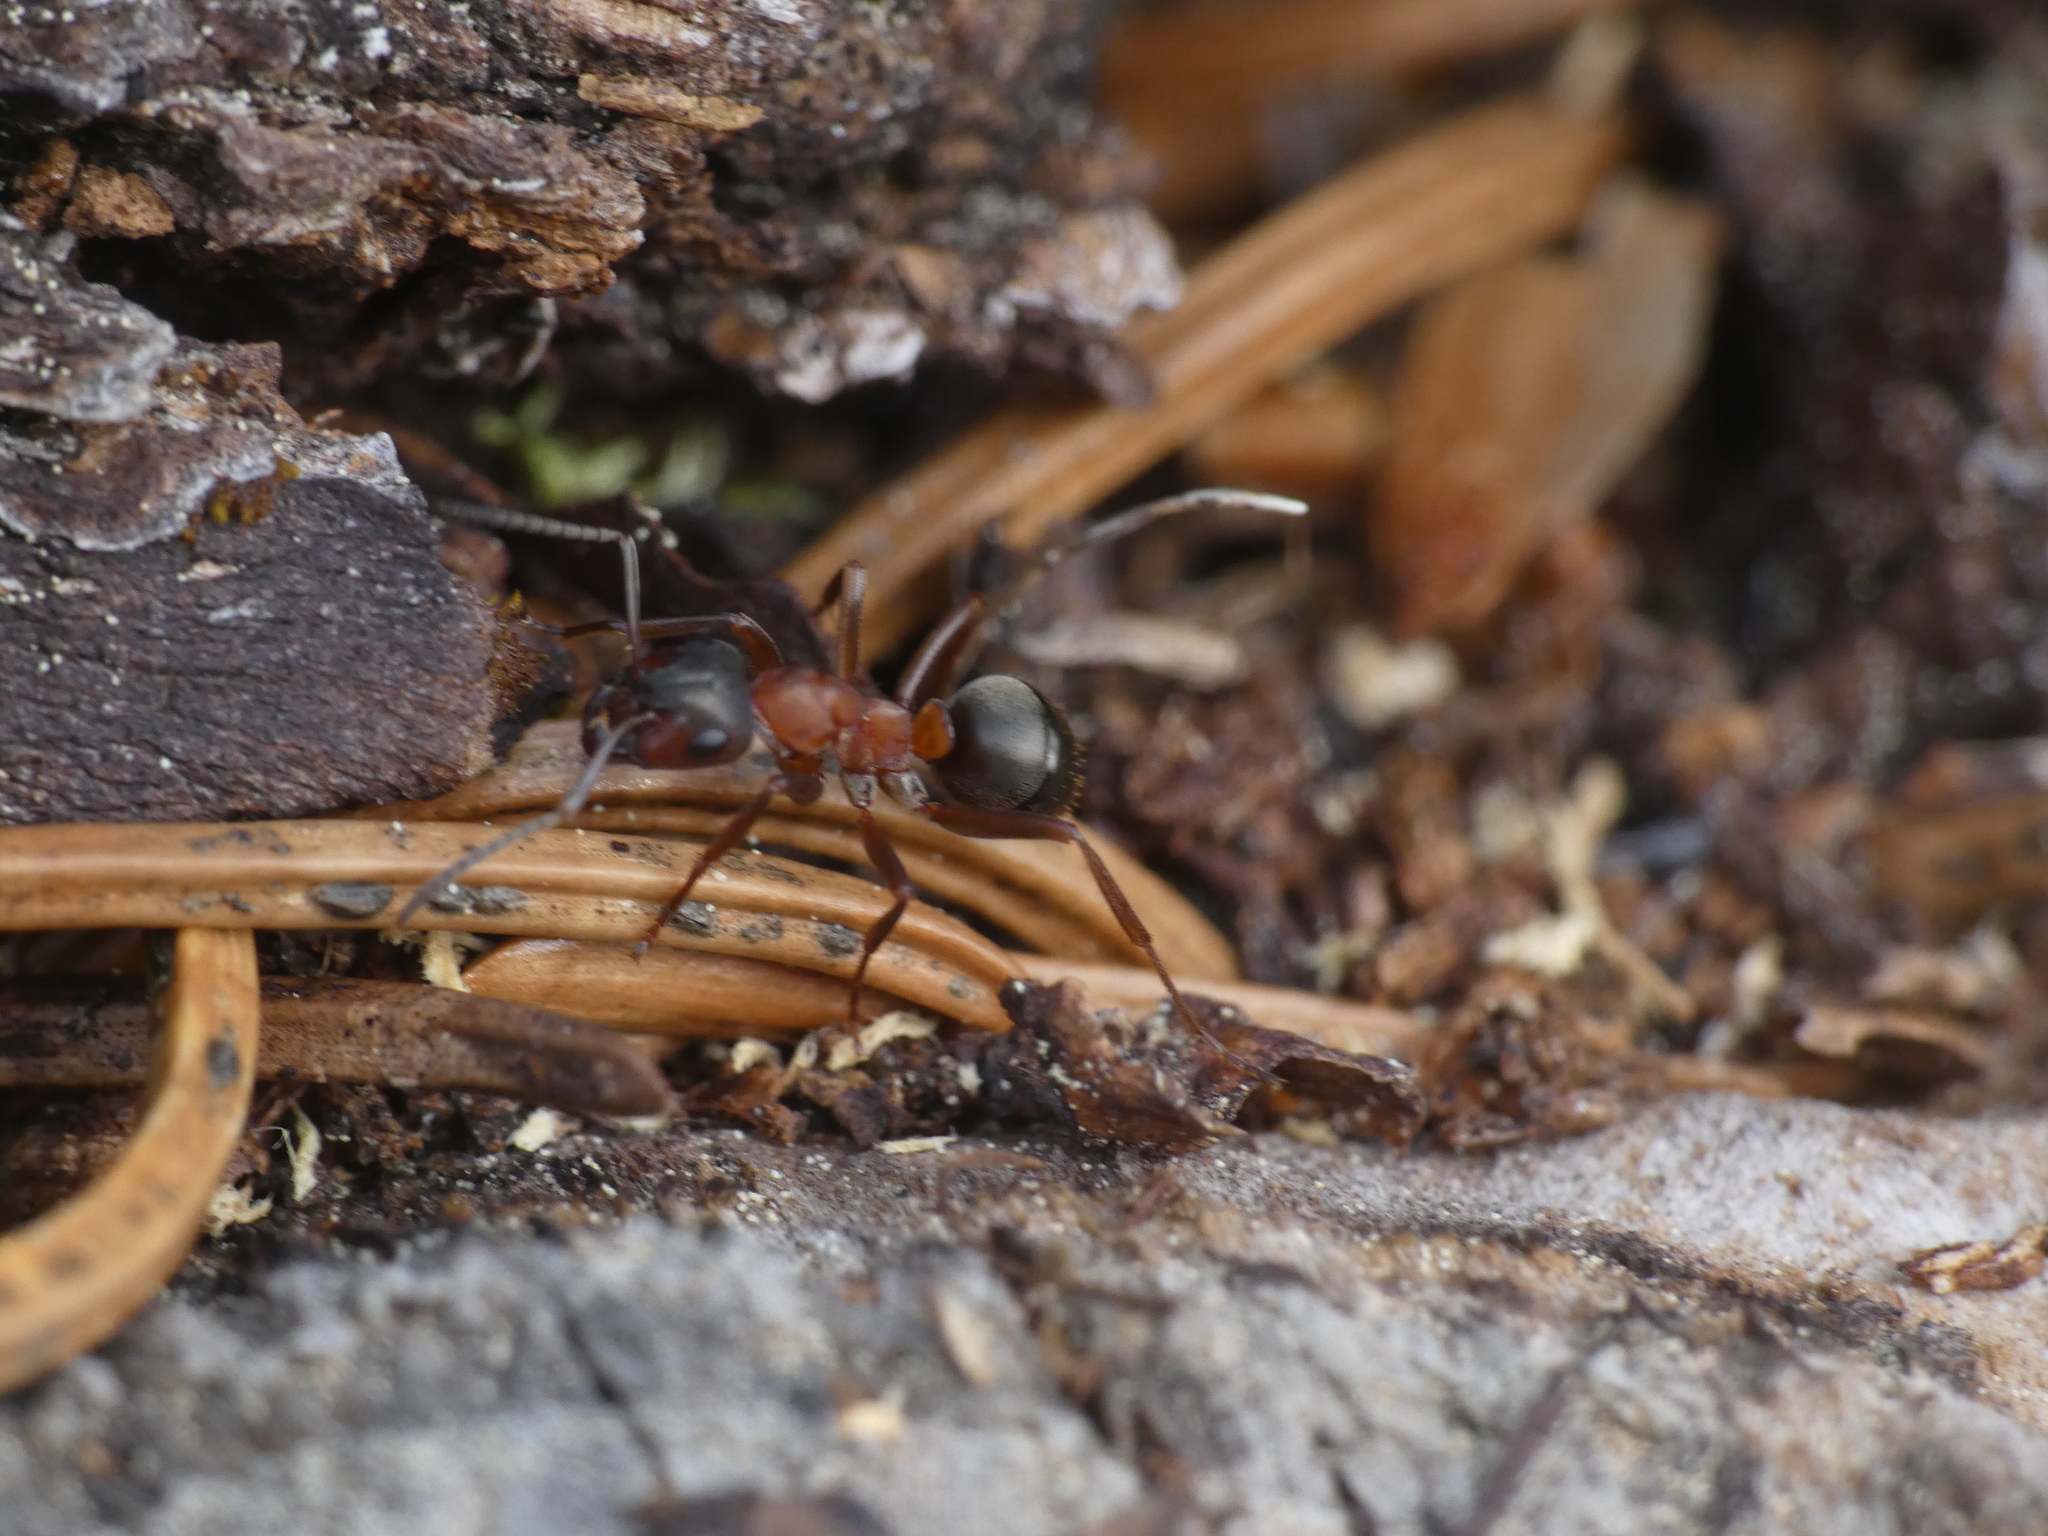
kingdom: Animalia
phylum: Arthropoda
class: Insecta
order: Hymenoptera
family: Formicidae
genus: Formica
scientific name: Formica sanguinea
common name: Blood-red ant
